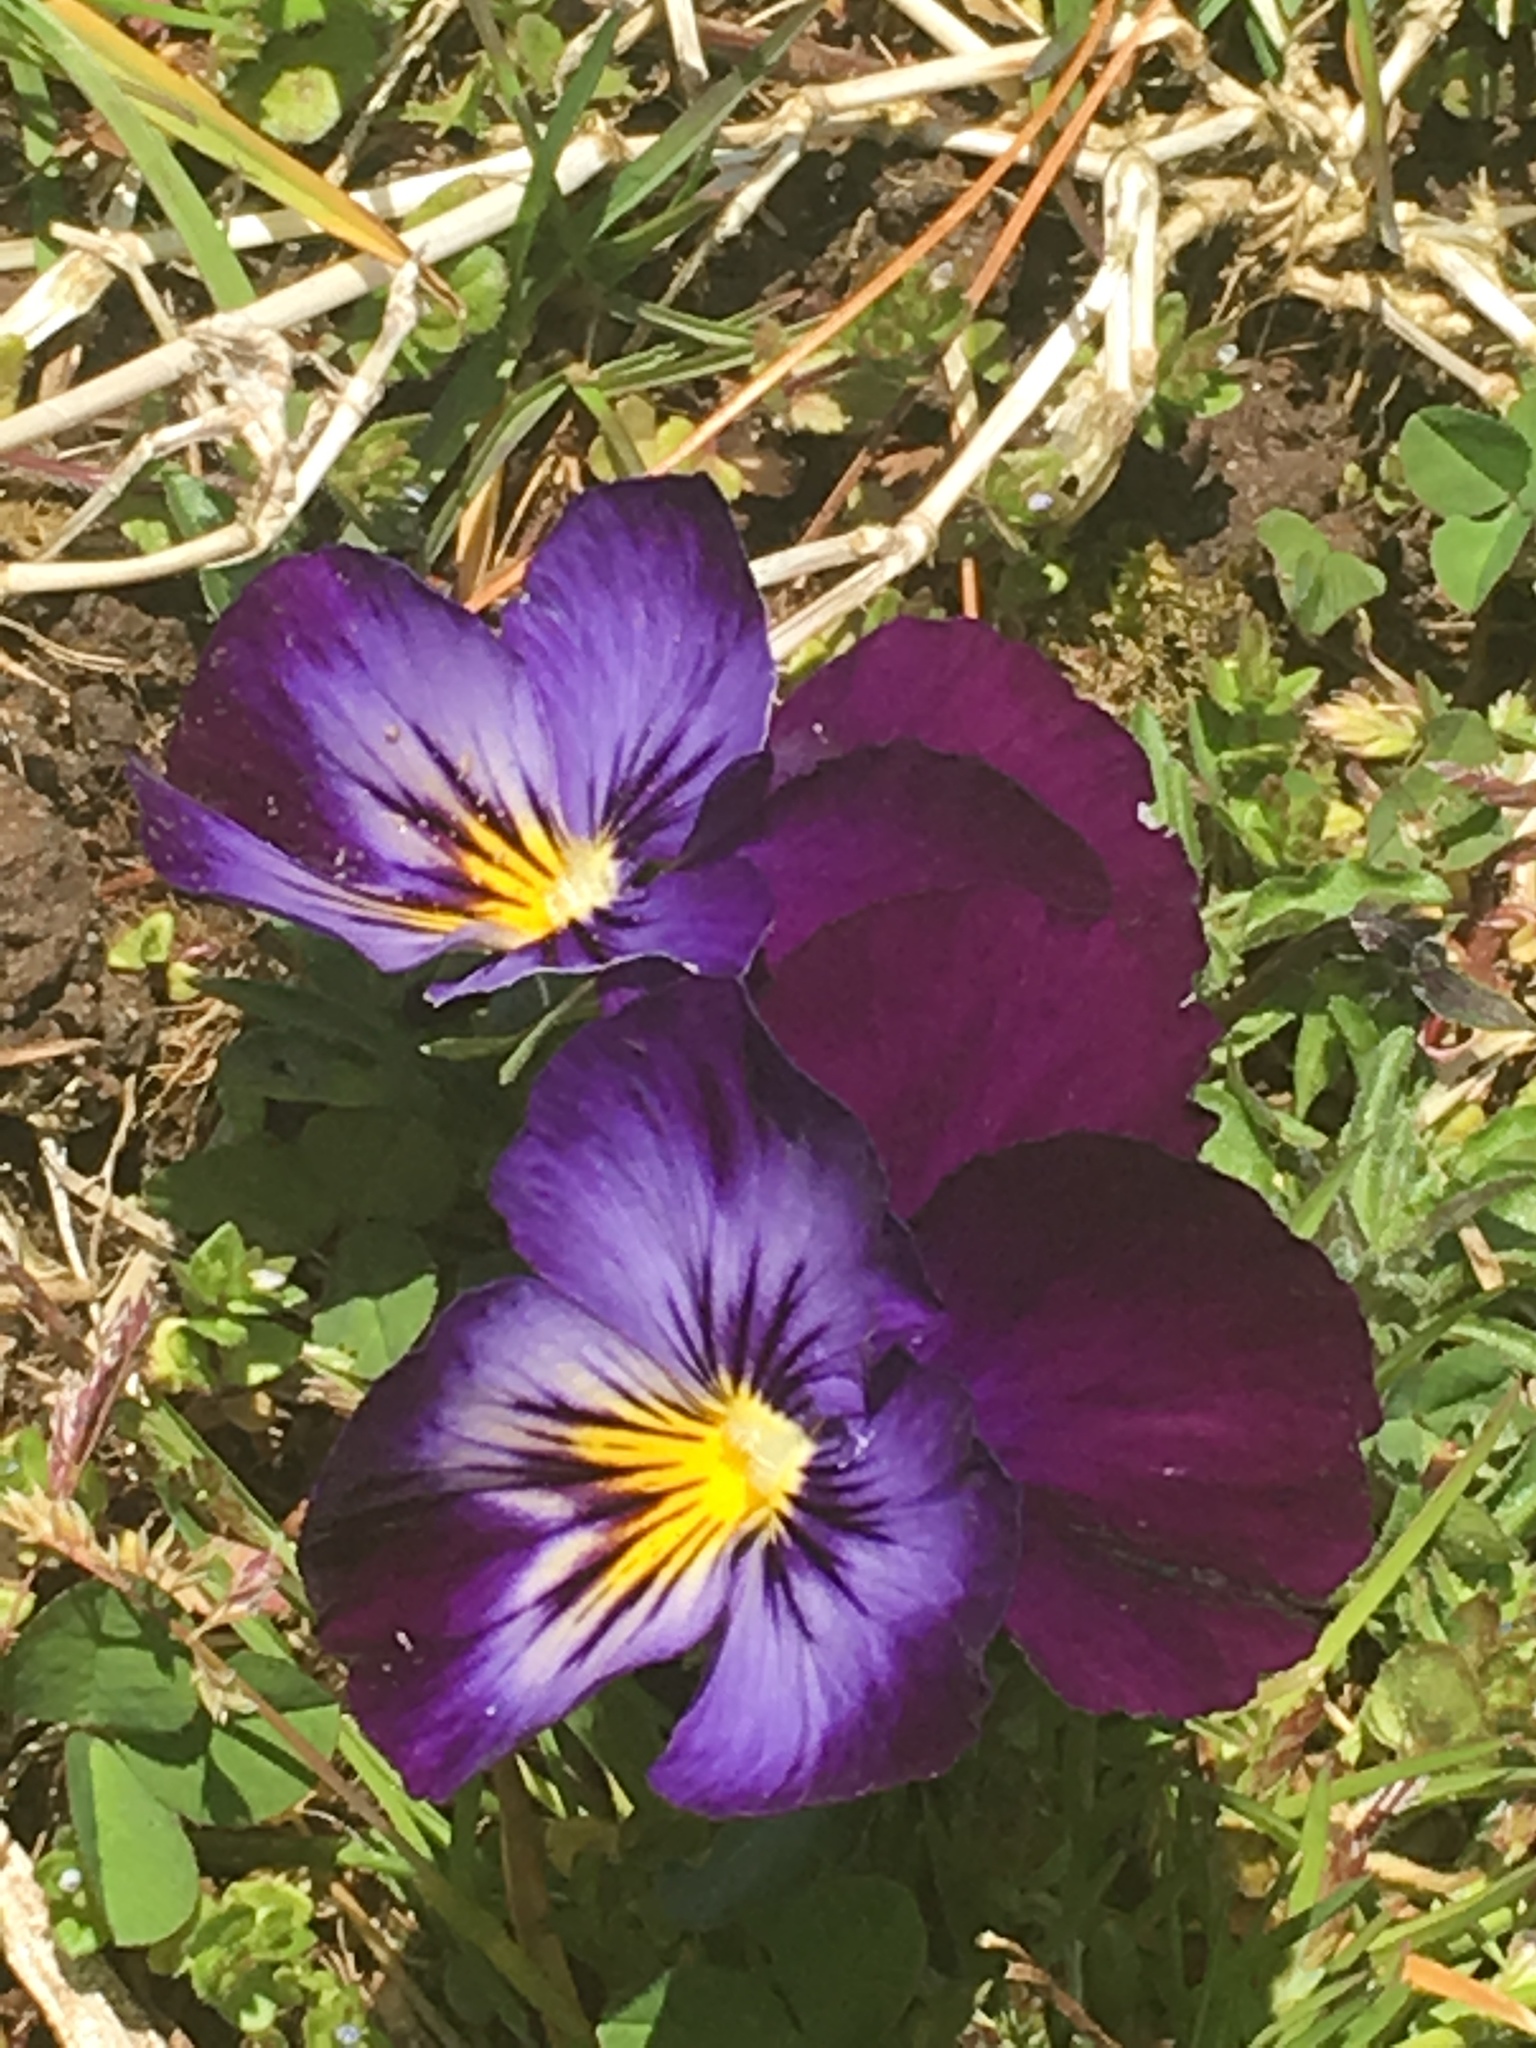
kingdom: Plantae
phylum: Tracheophyta
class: Magnoliopsida
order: Malpighiales
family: Violaceae
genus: Viola
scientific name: Viola wittrockiana
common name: Garden pansy
